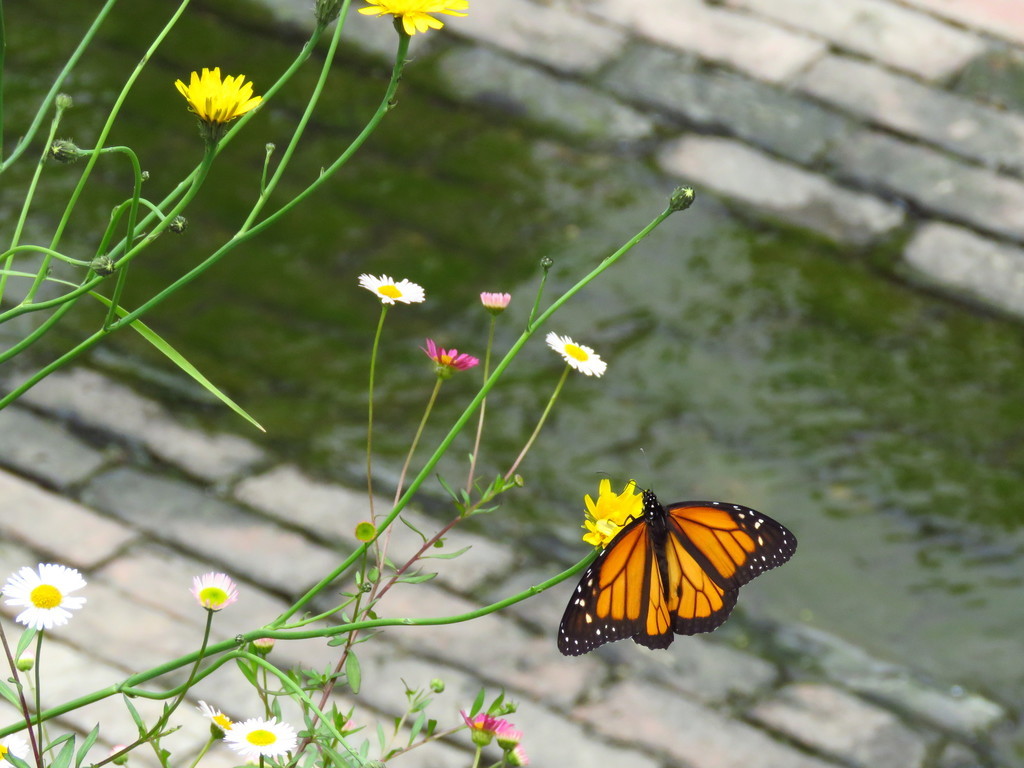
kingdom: Plantae
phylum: Tracheophyta
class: Magnoliopsida
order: Asterales
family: Asteraceae
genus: Hypochaeris
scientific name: Hypochaeris radicata
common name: Flatweed
